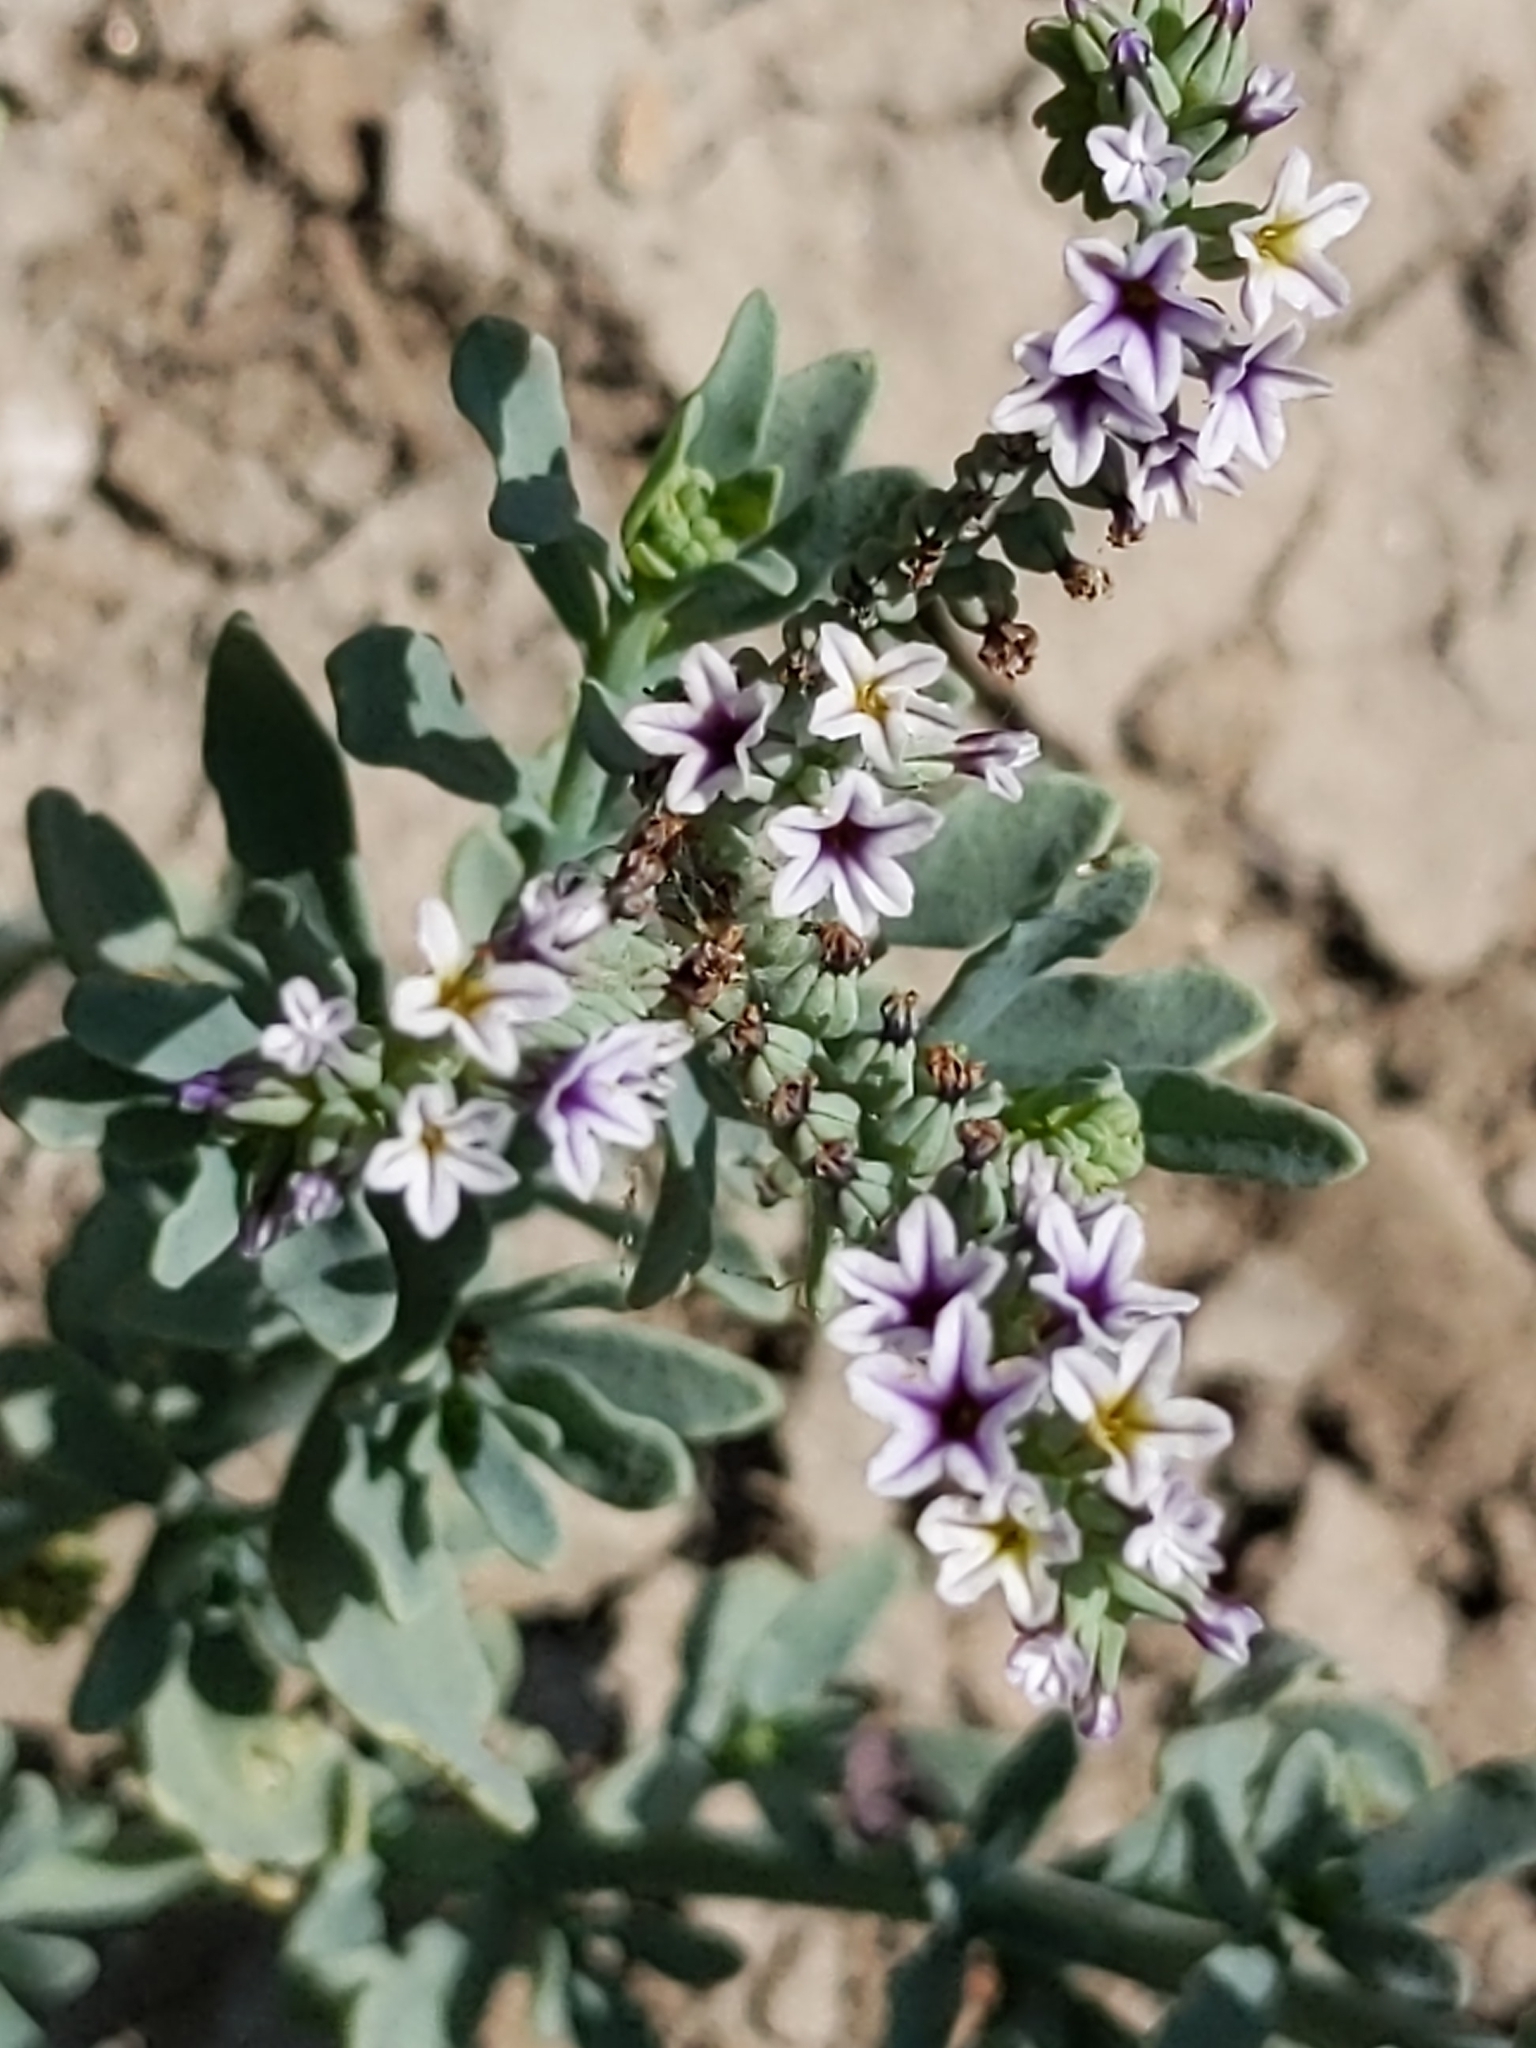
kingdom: Plantae
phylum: Tracheophyta
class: Magnoliopsida
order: Boraginales
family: Heliotropiaceae
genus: Heliotropium
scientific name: Heliotropium curassavicum
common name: Seaside heliotrope
